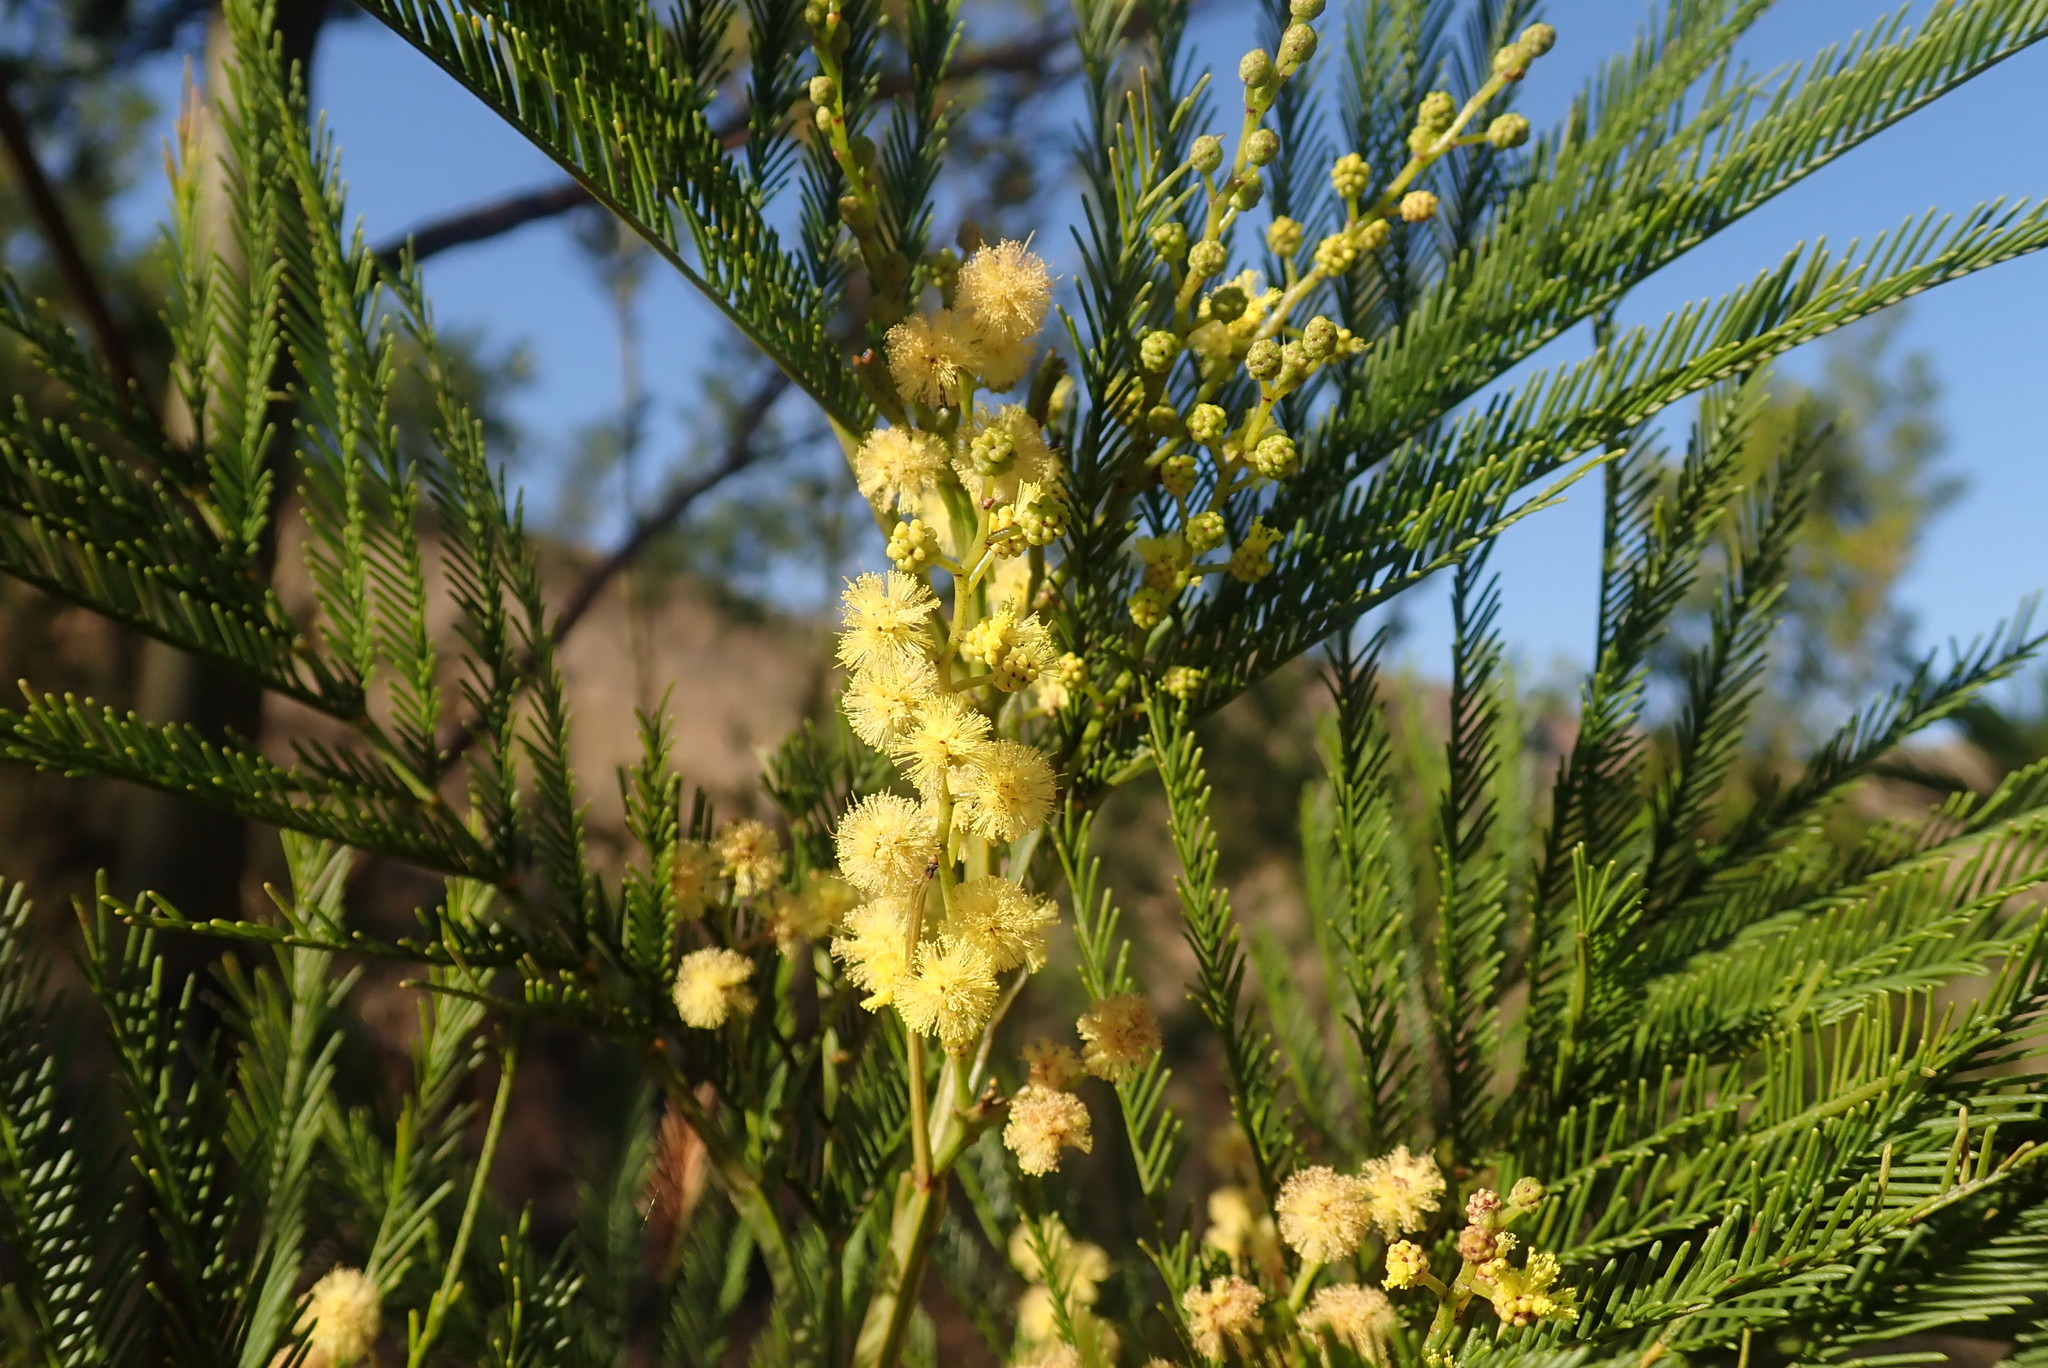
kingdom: Plantae
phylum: Tracheophyta
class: Magnoliopsida
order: Fabales
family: Fabaceae
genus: Acacia
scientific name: Acacia decurrens
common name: Green wattle
